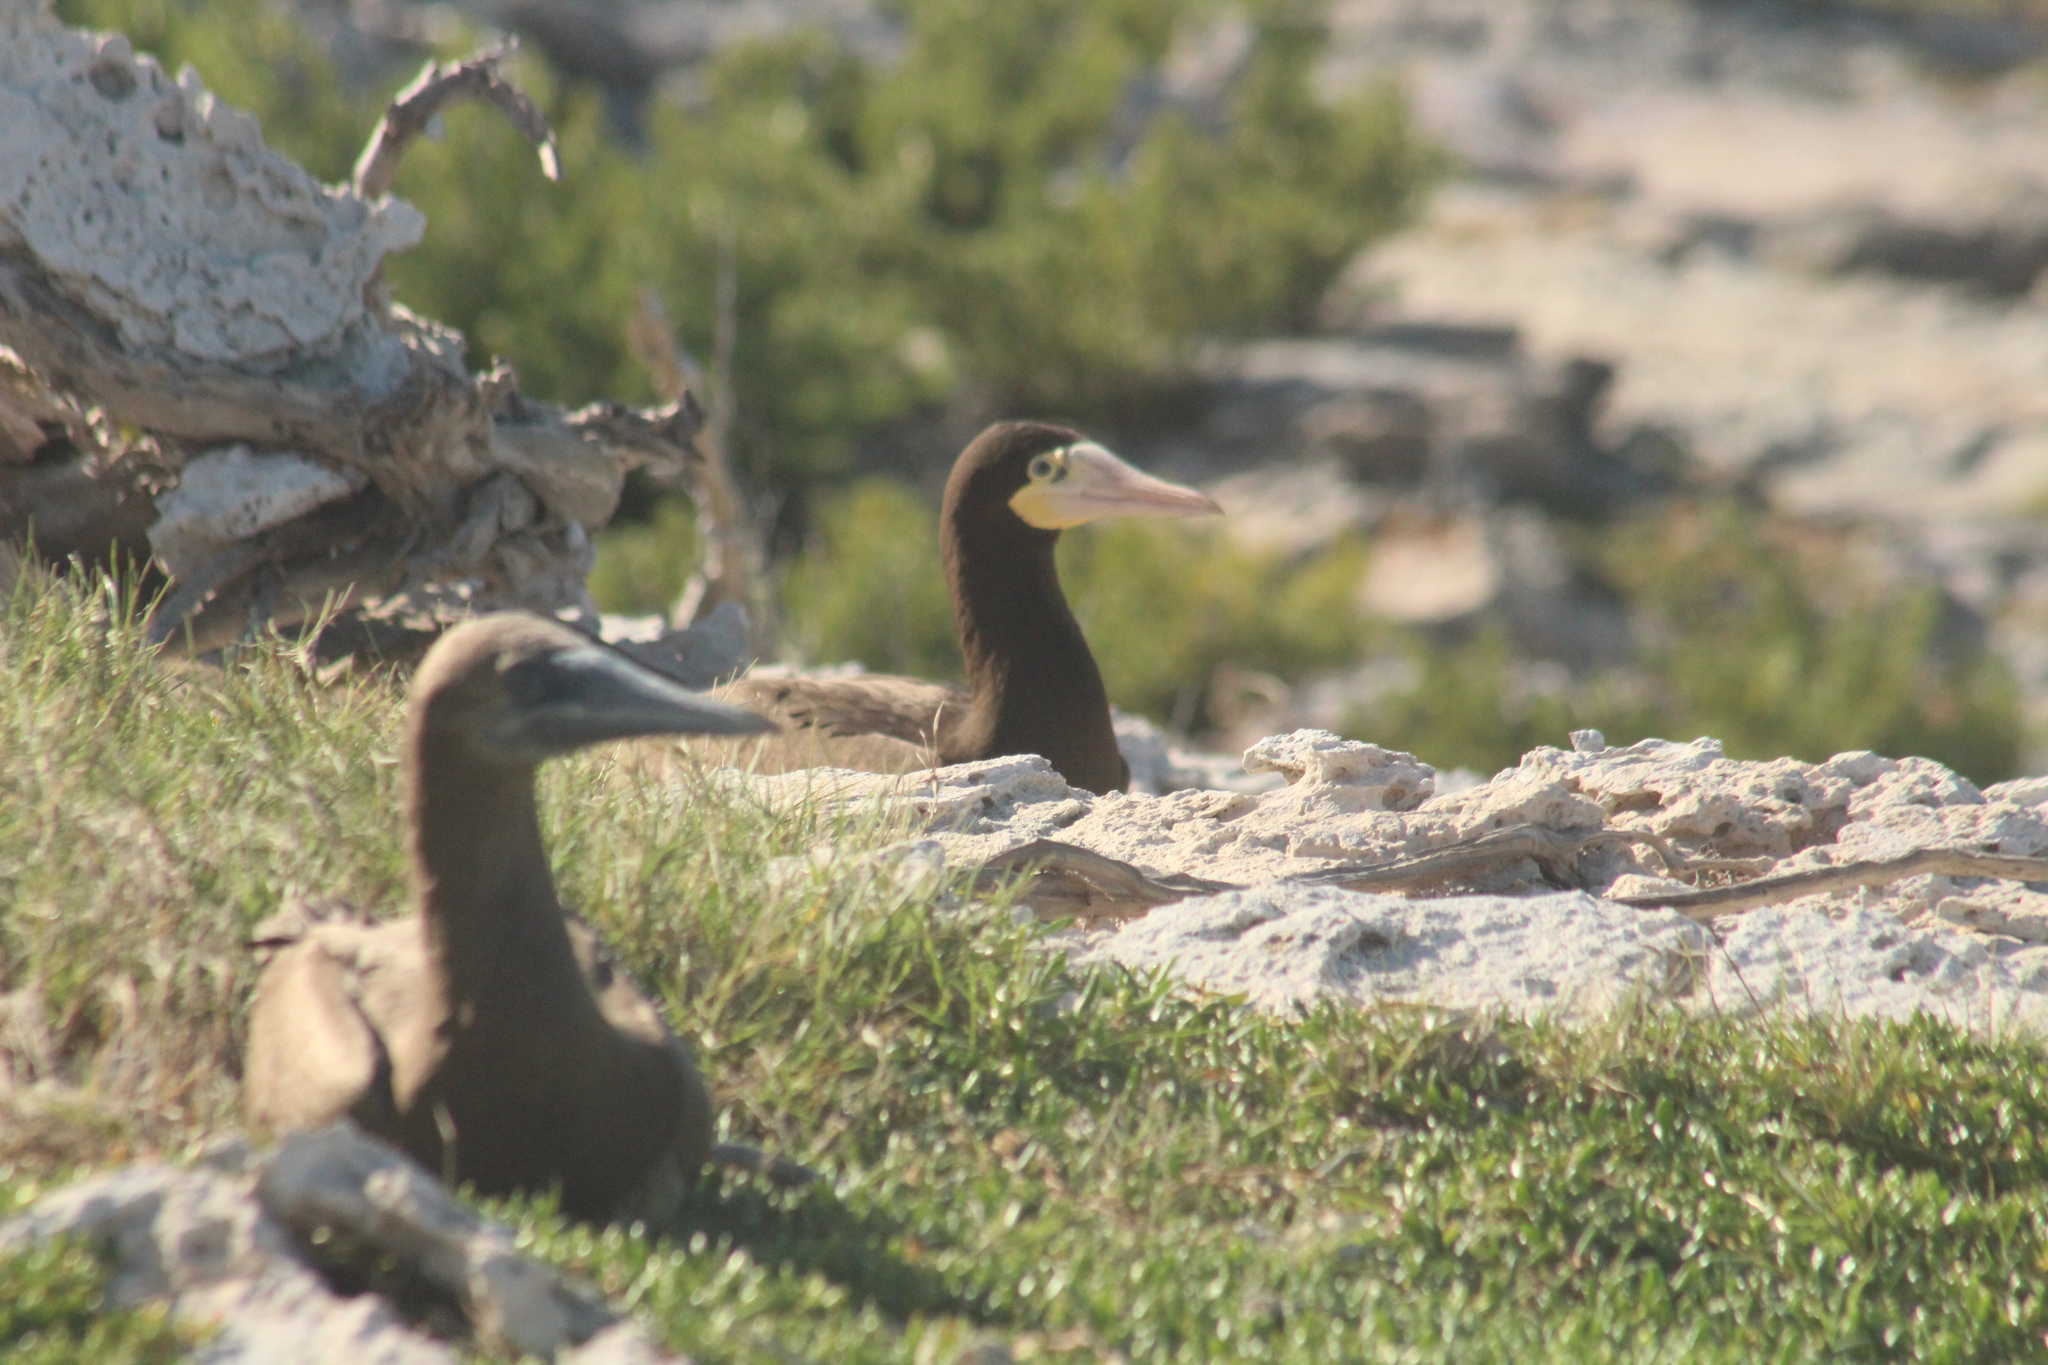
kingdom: Animalia
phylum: Chordata
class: Aves
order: Suliformes
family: Sulidae
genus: Sula
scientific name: Sula leucogaster
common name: Brown booby
